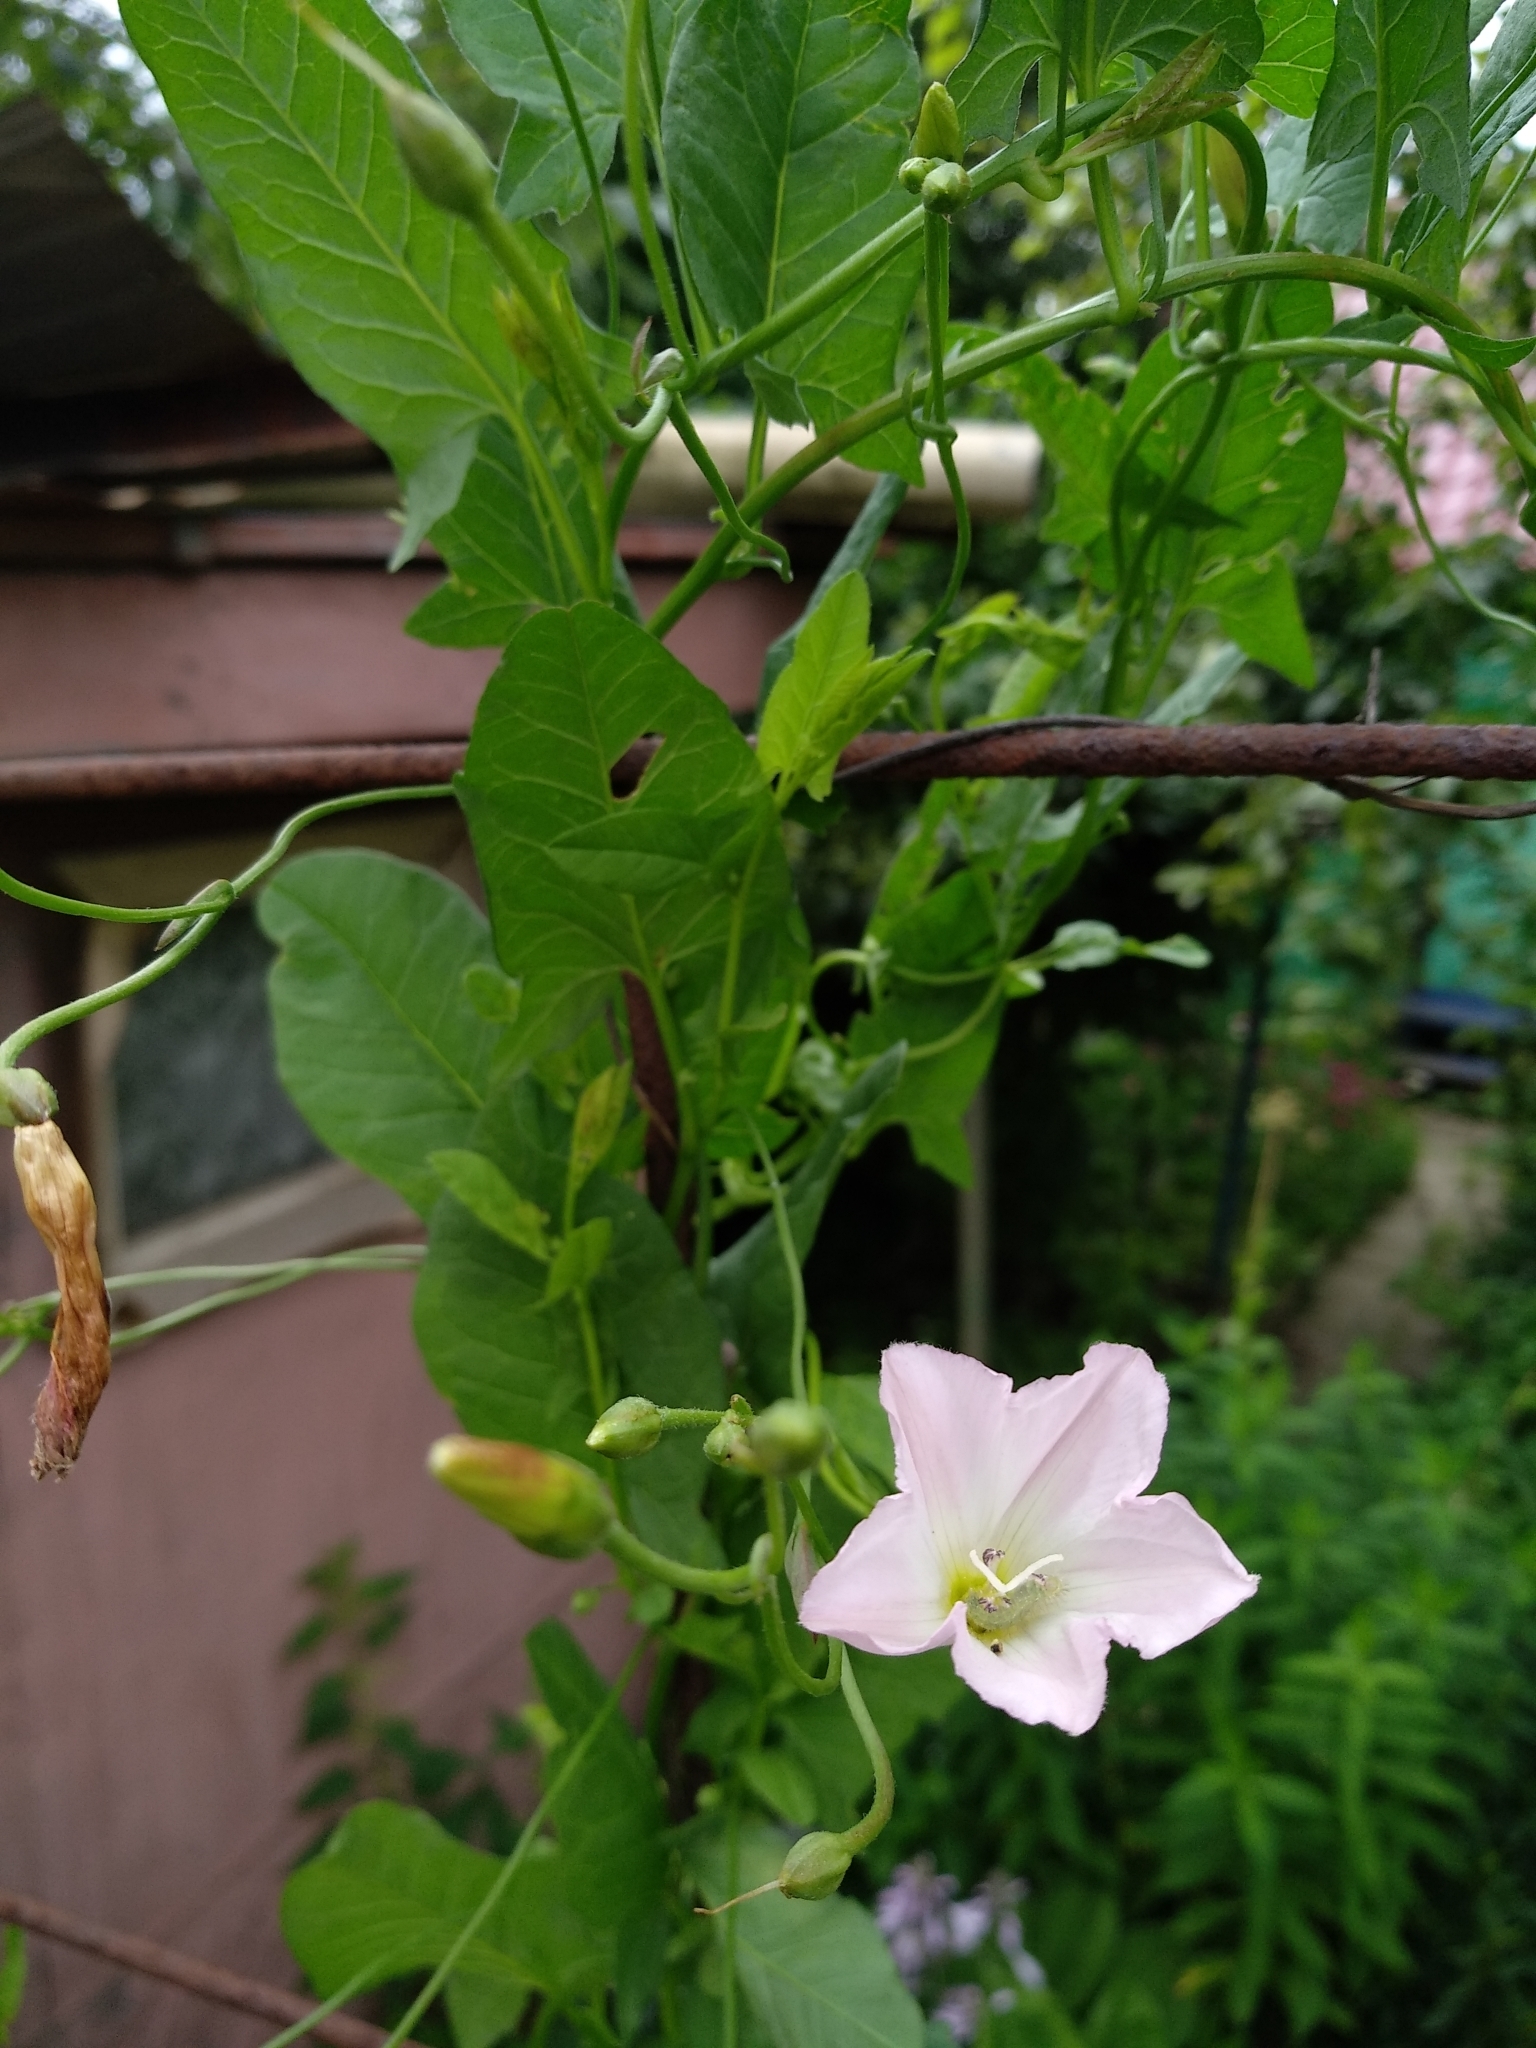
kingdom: Plantae
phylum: Tracheophyta
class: Magnoliopsida
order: Solanales
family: Convolvulaceae
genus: Convolvulus
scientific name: Convolvulus arvensis
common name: Field bindweed
